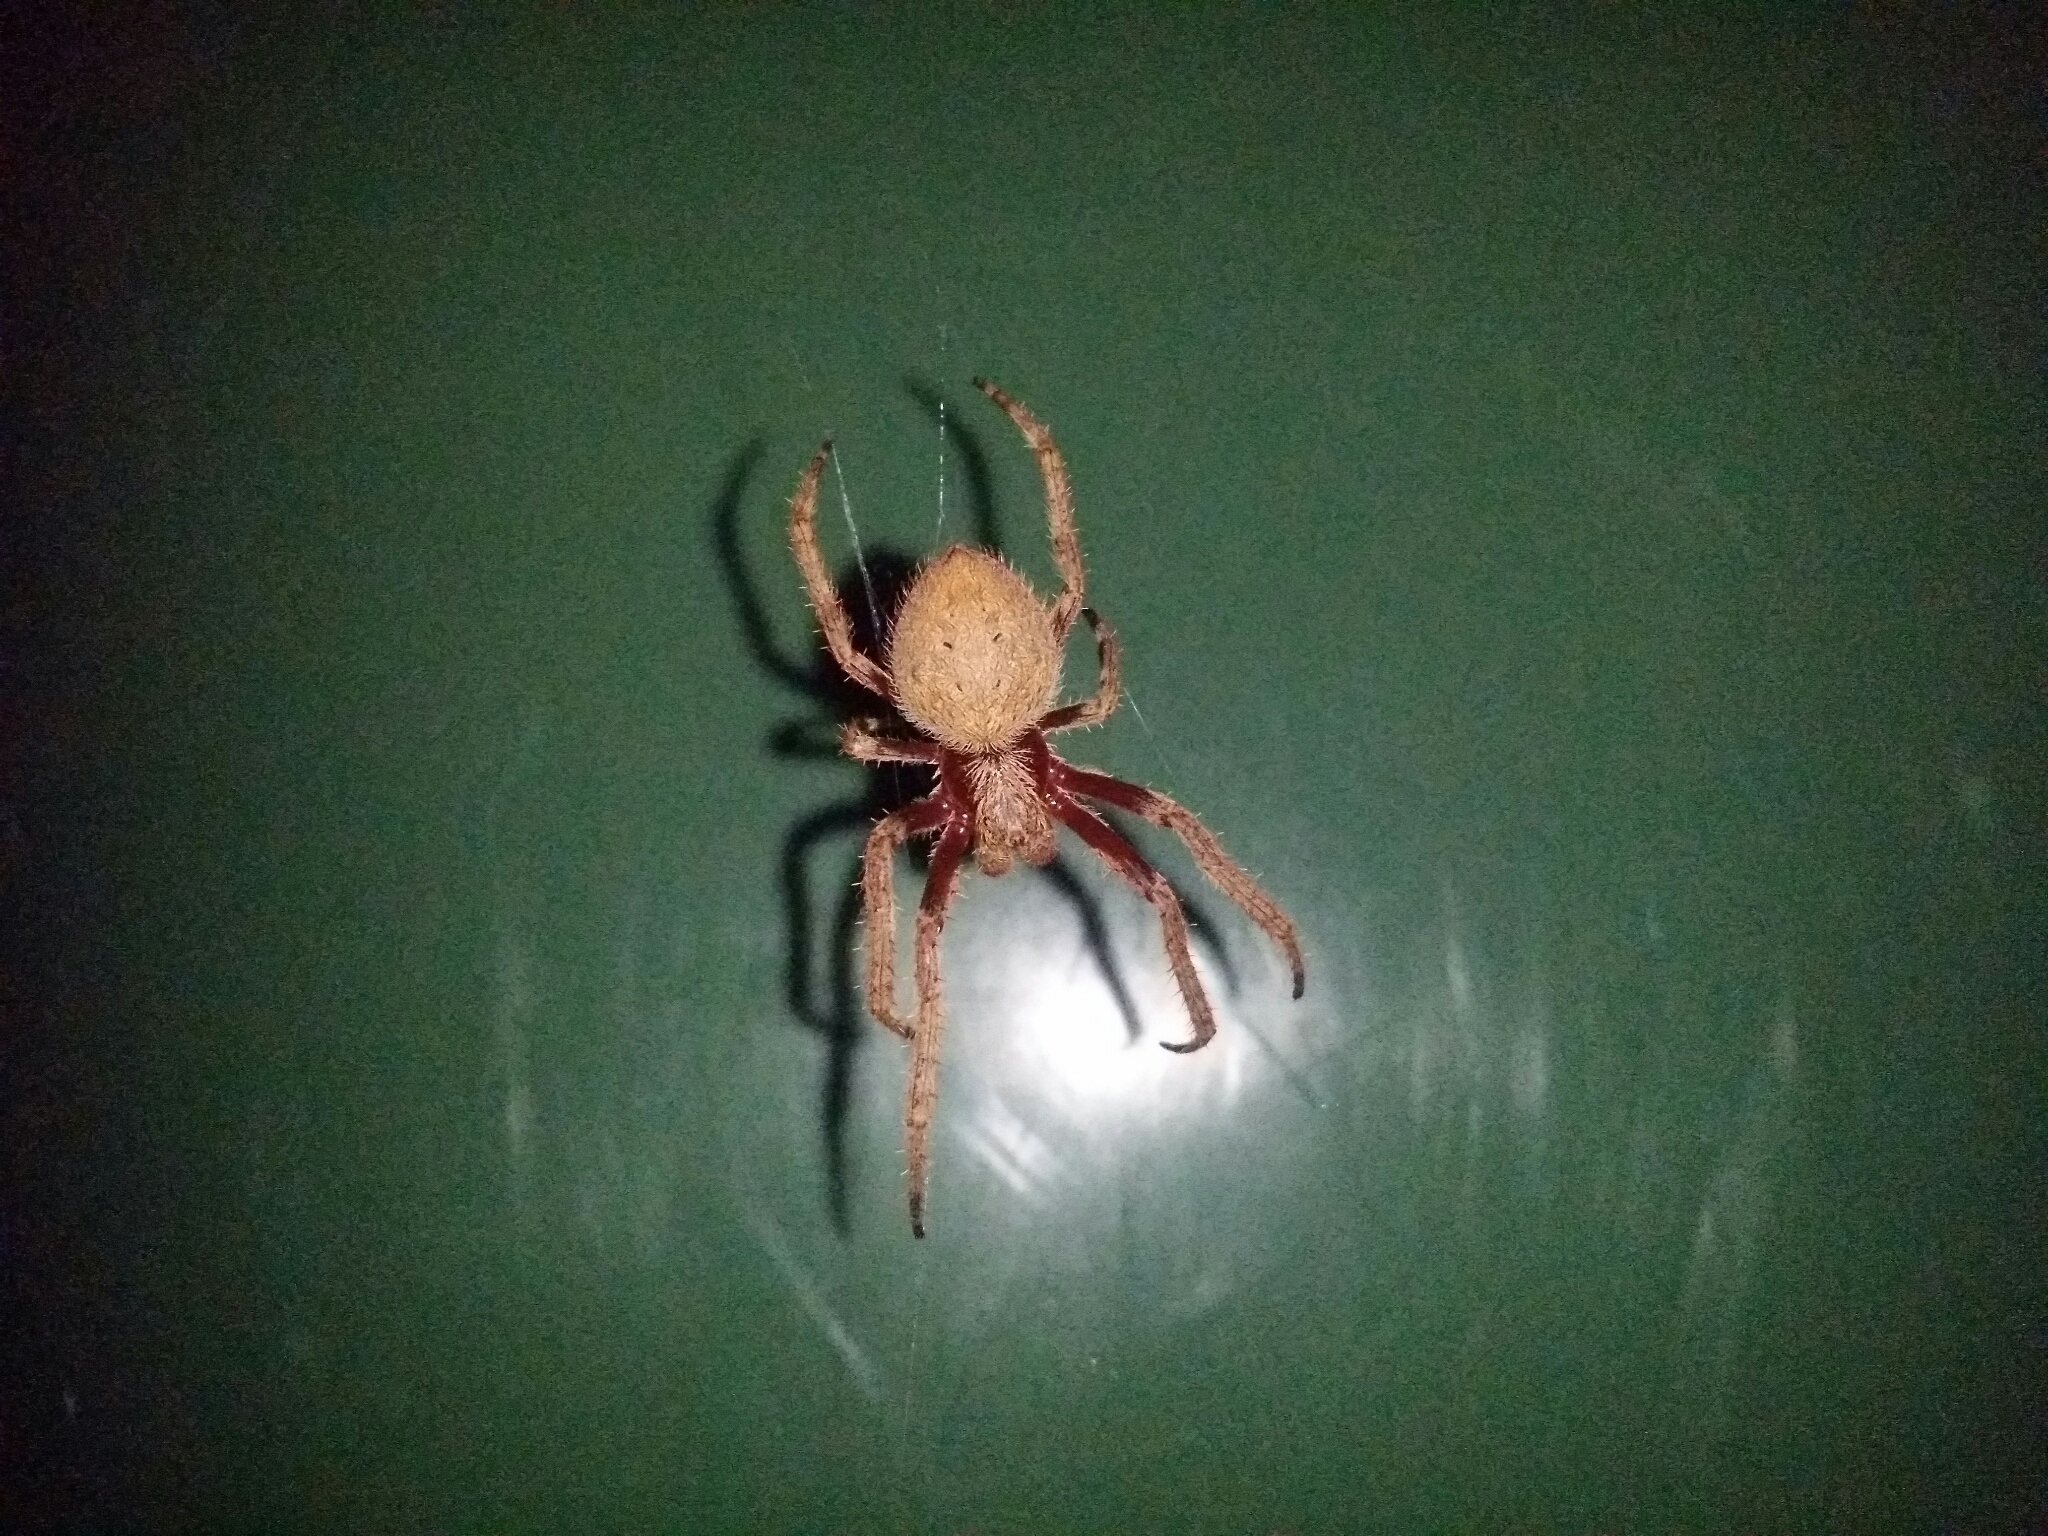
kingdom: Animalia
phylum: Arthropoda
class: Arachnida
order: Araneae
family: Araneidae
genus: Hortophora
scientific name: Hortophora biapicata
